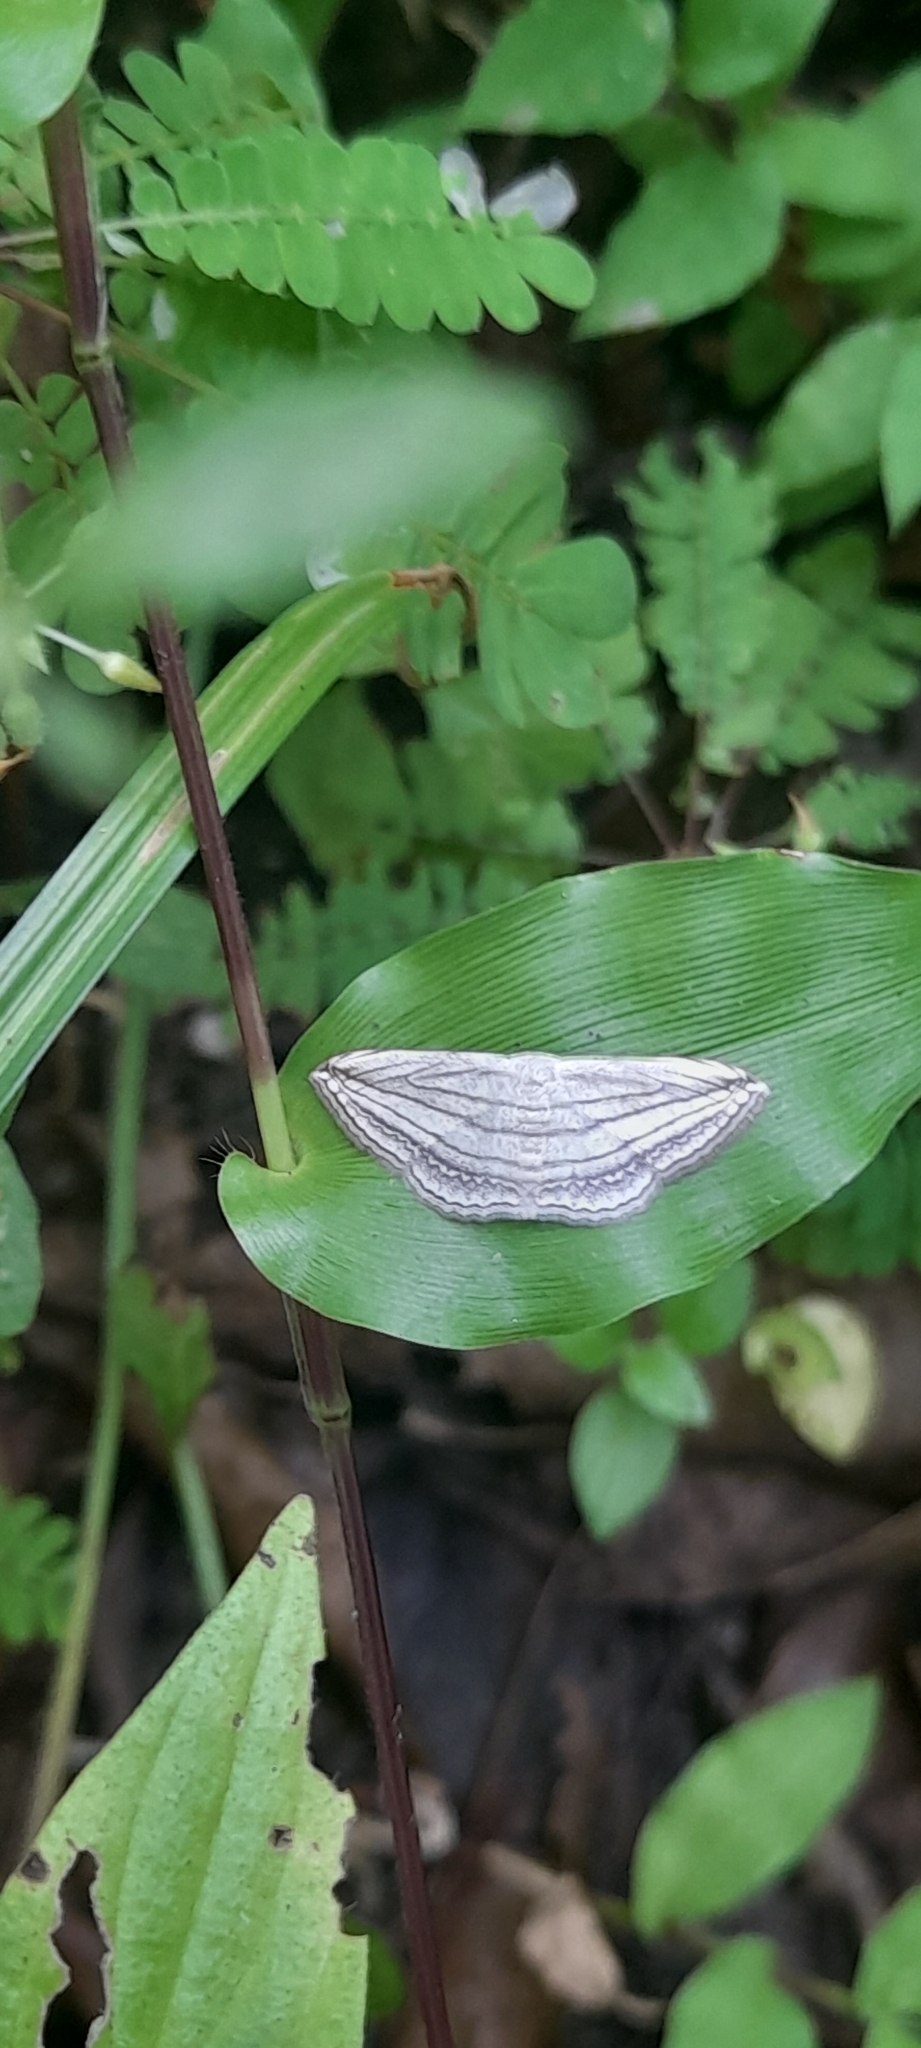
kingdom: Animalia
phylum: Arthropoda
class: Insecta
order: Lepidoptera
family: Geometridae
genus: Scopula
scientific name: Scopula opicata
